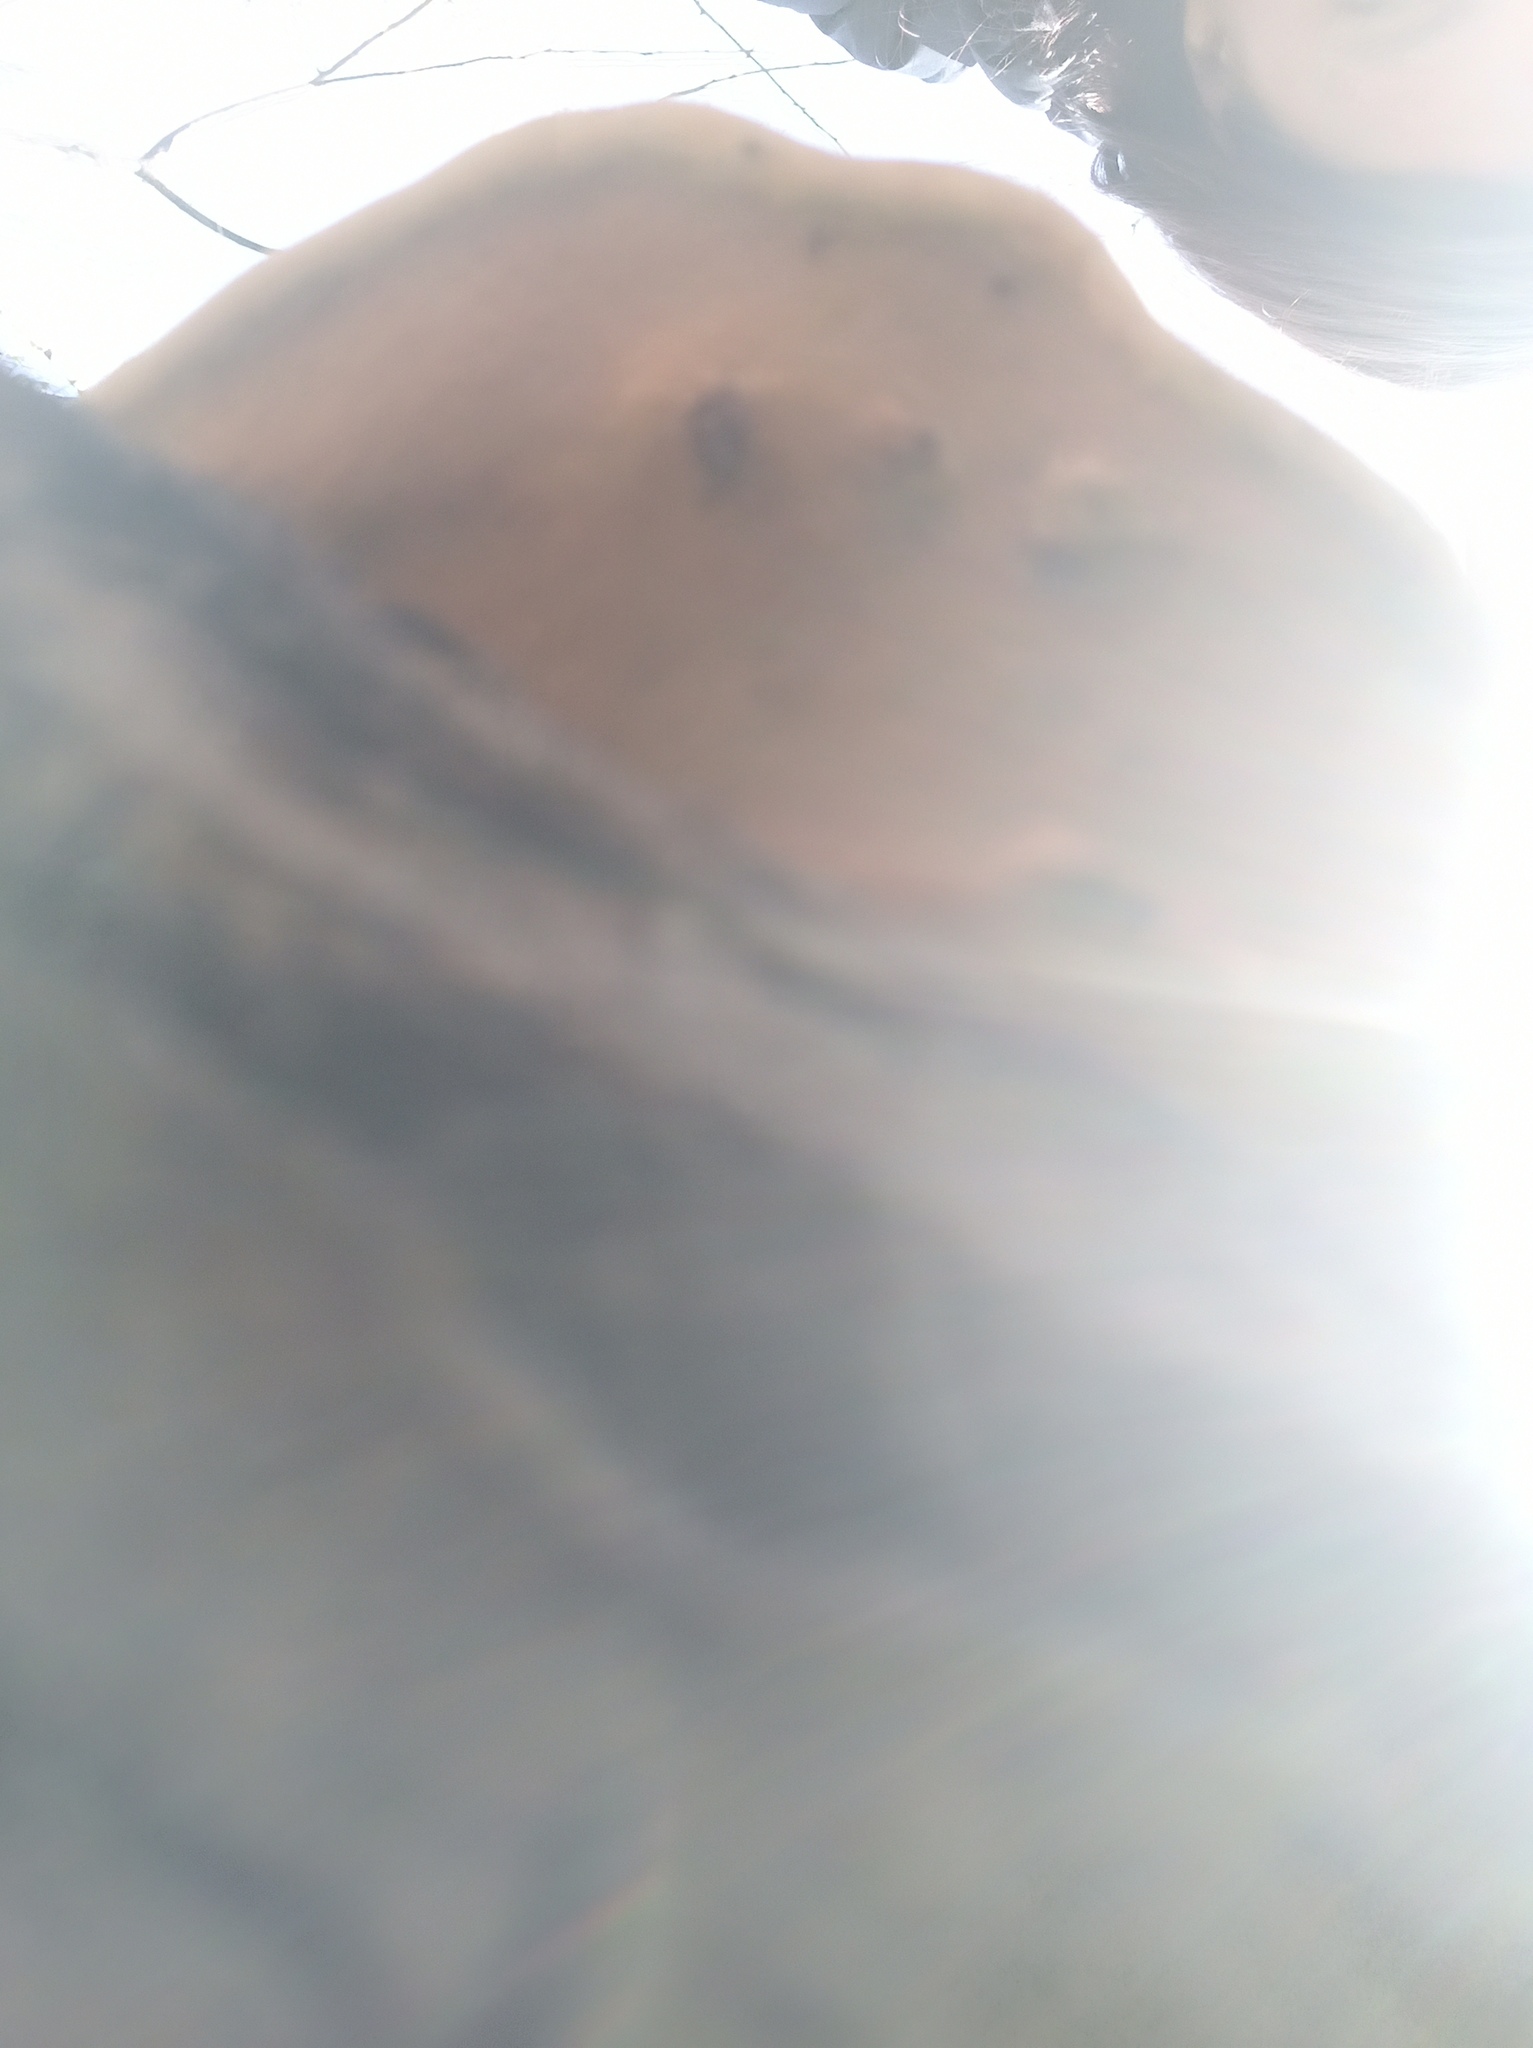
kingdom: Fungi
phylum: Basidiomycota
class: Agaricomycetes
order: Polyporales
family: Fomitopsidaceae
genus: Fomitopsis
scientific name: Fomitopsis pinicola
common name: Red-belted bracket
